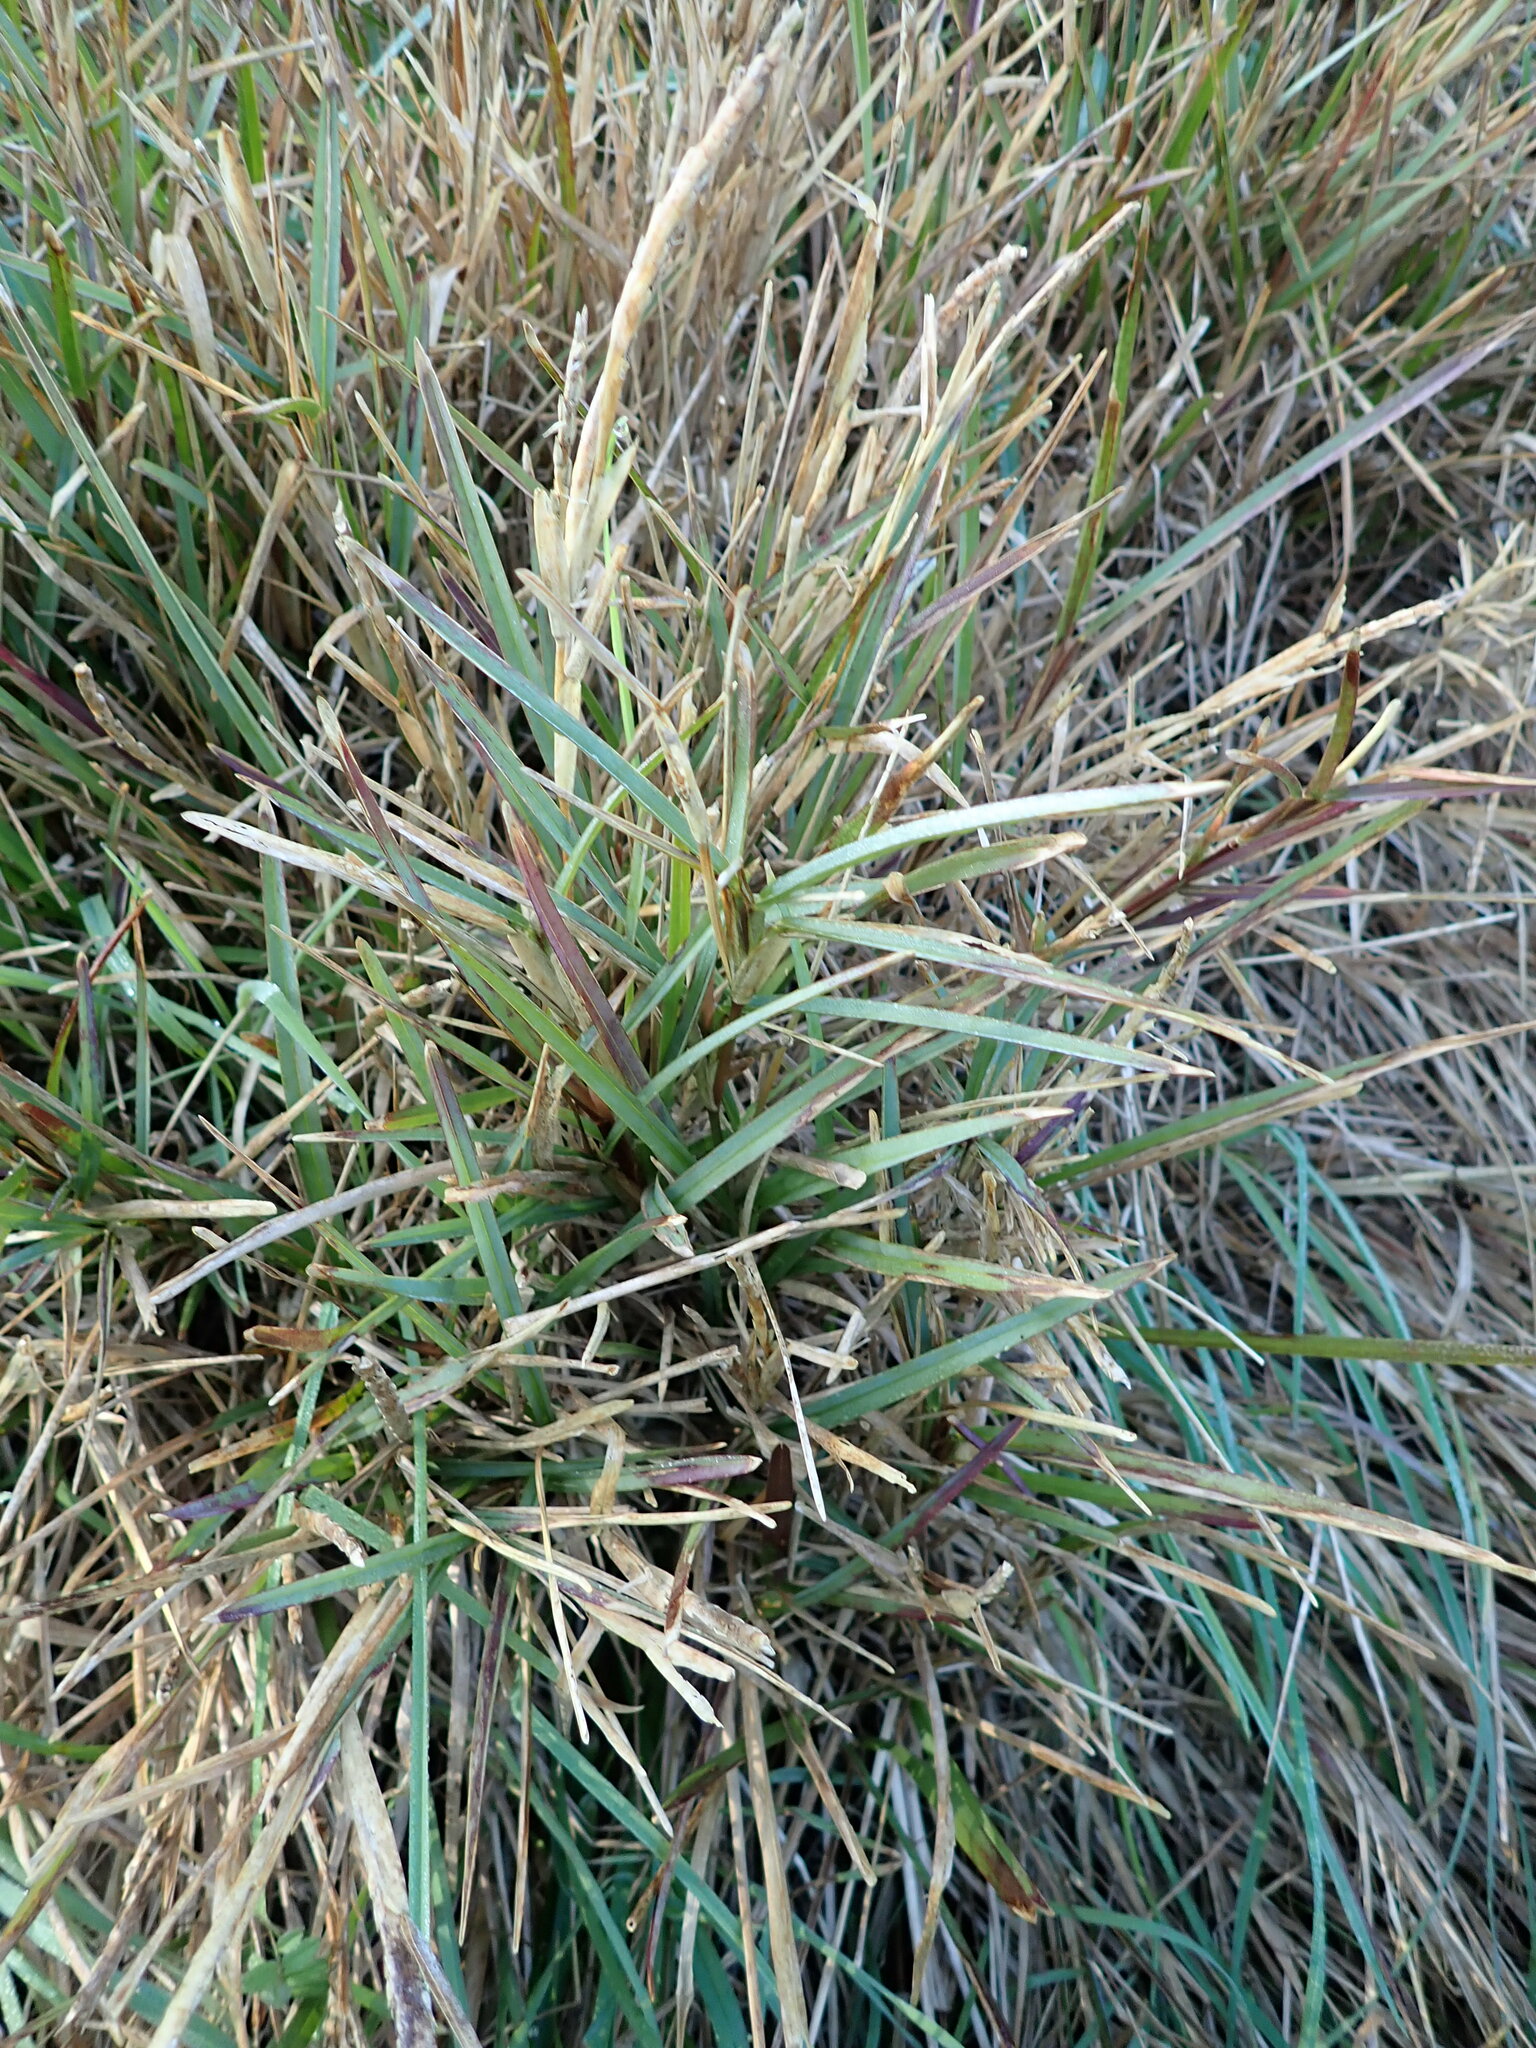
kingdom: Plantae
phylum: Tracheophyta
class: Liliopsida
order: Poales
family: Poaceae
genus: Stenotaphrum
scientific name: Stenotaphrum secundatum
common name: St. augustine grass
